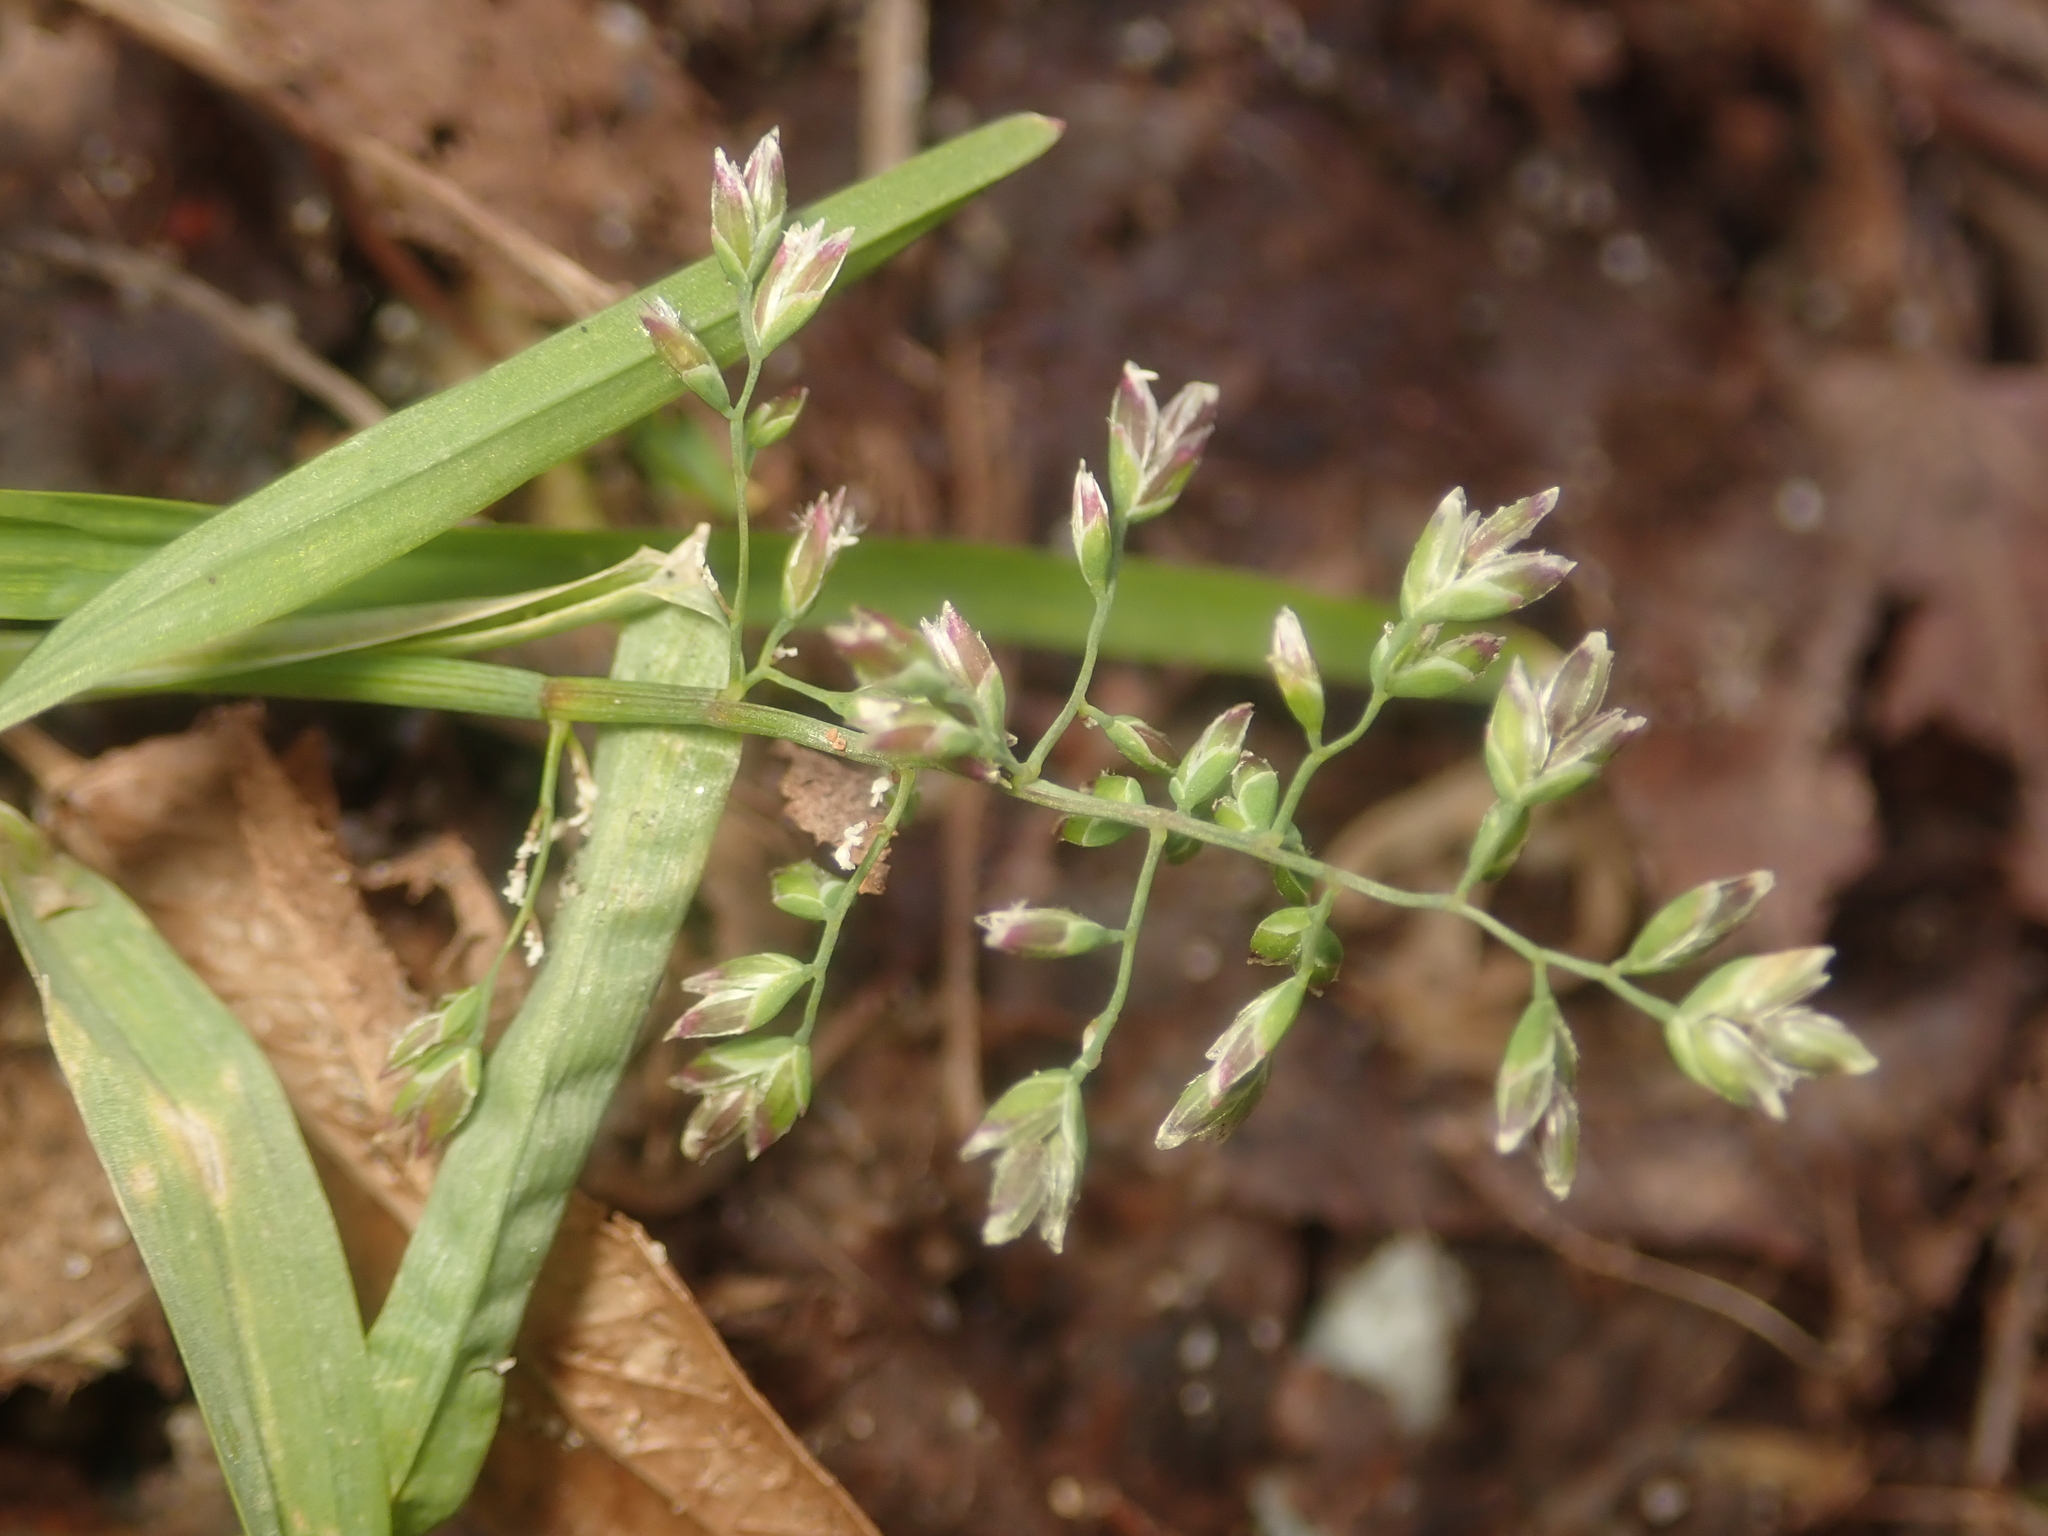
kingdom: Plantae
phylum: Tracheophyta
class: Liliopsida
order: Poales
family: Poaceae
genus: Poa
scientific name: Poa annua
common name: Annual bluegrass
